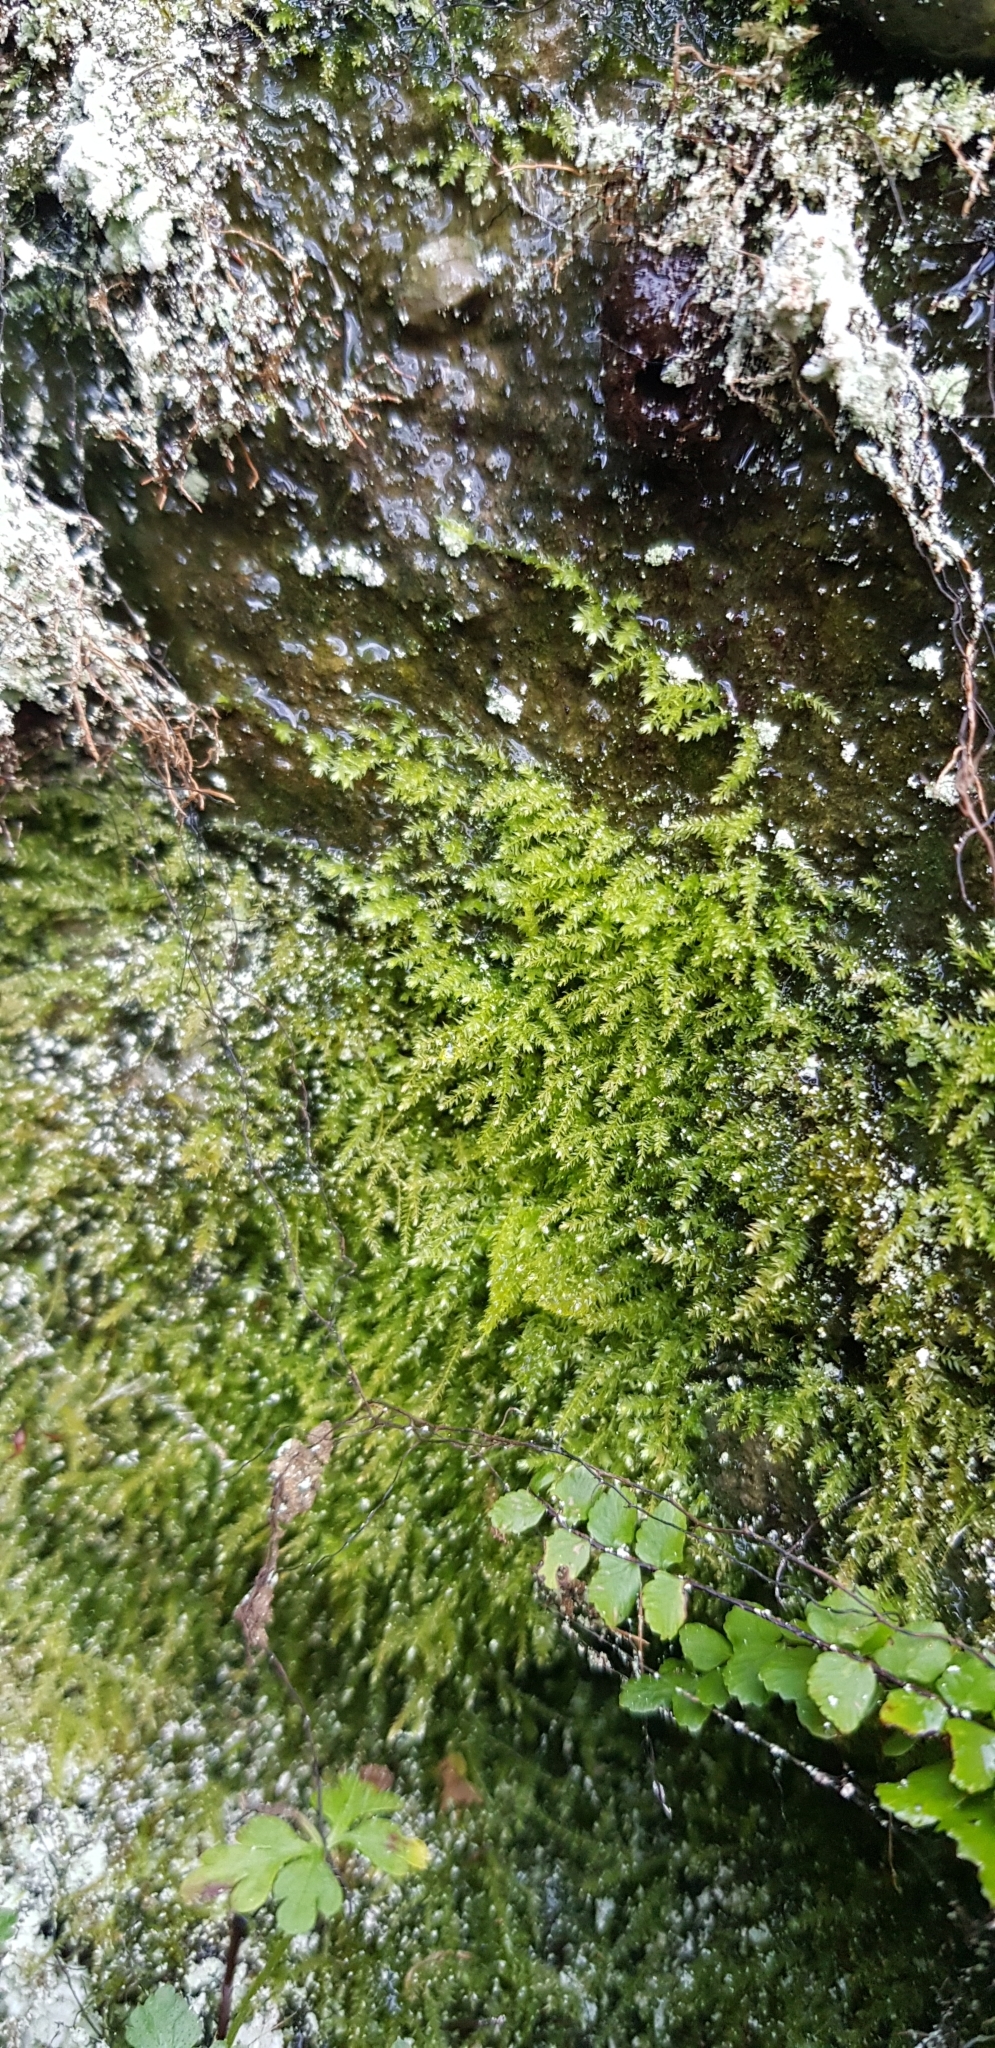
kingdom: Plantae
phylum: Bryophyta
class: Bryopsida
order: Hypnales
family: Brachytheciaceae
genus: Oxyrrhynchium
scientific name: Oxyrrhynchium hians
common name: Spreading beaked moss
